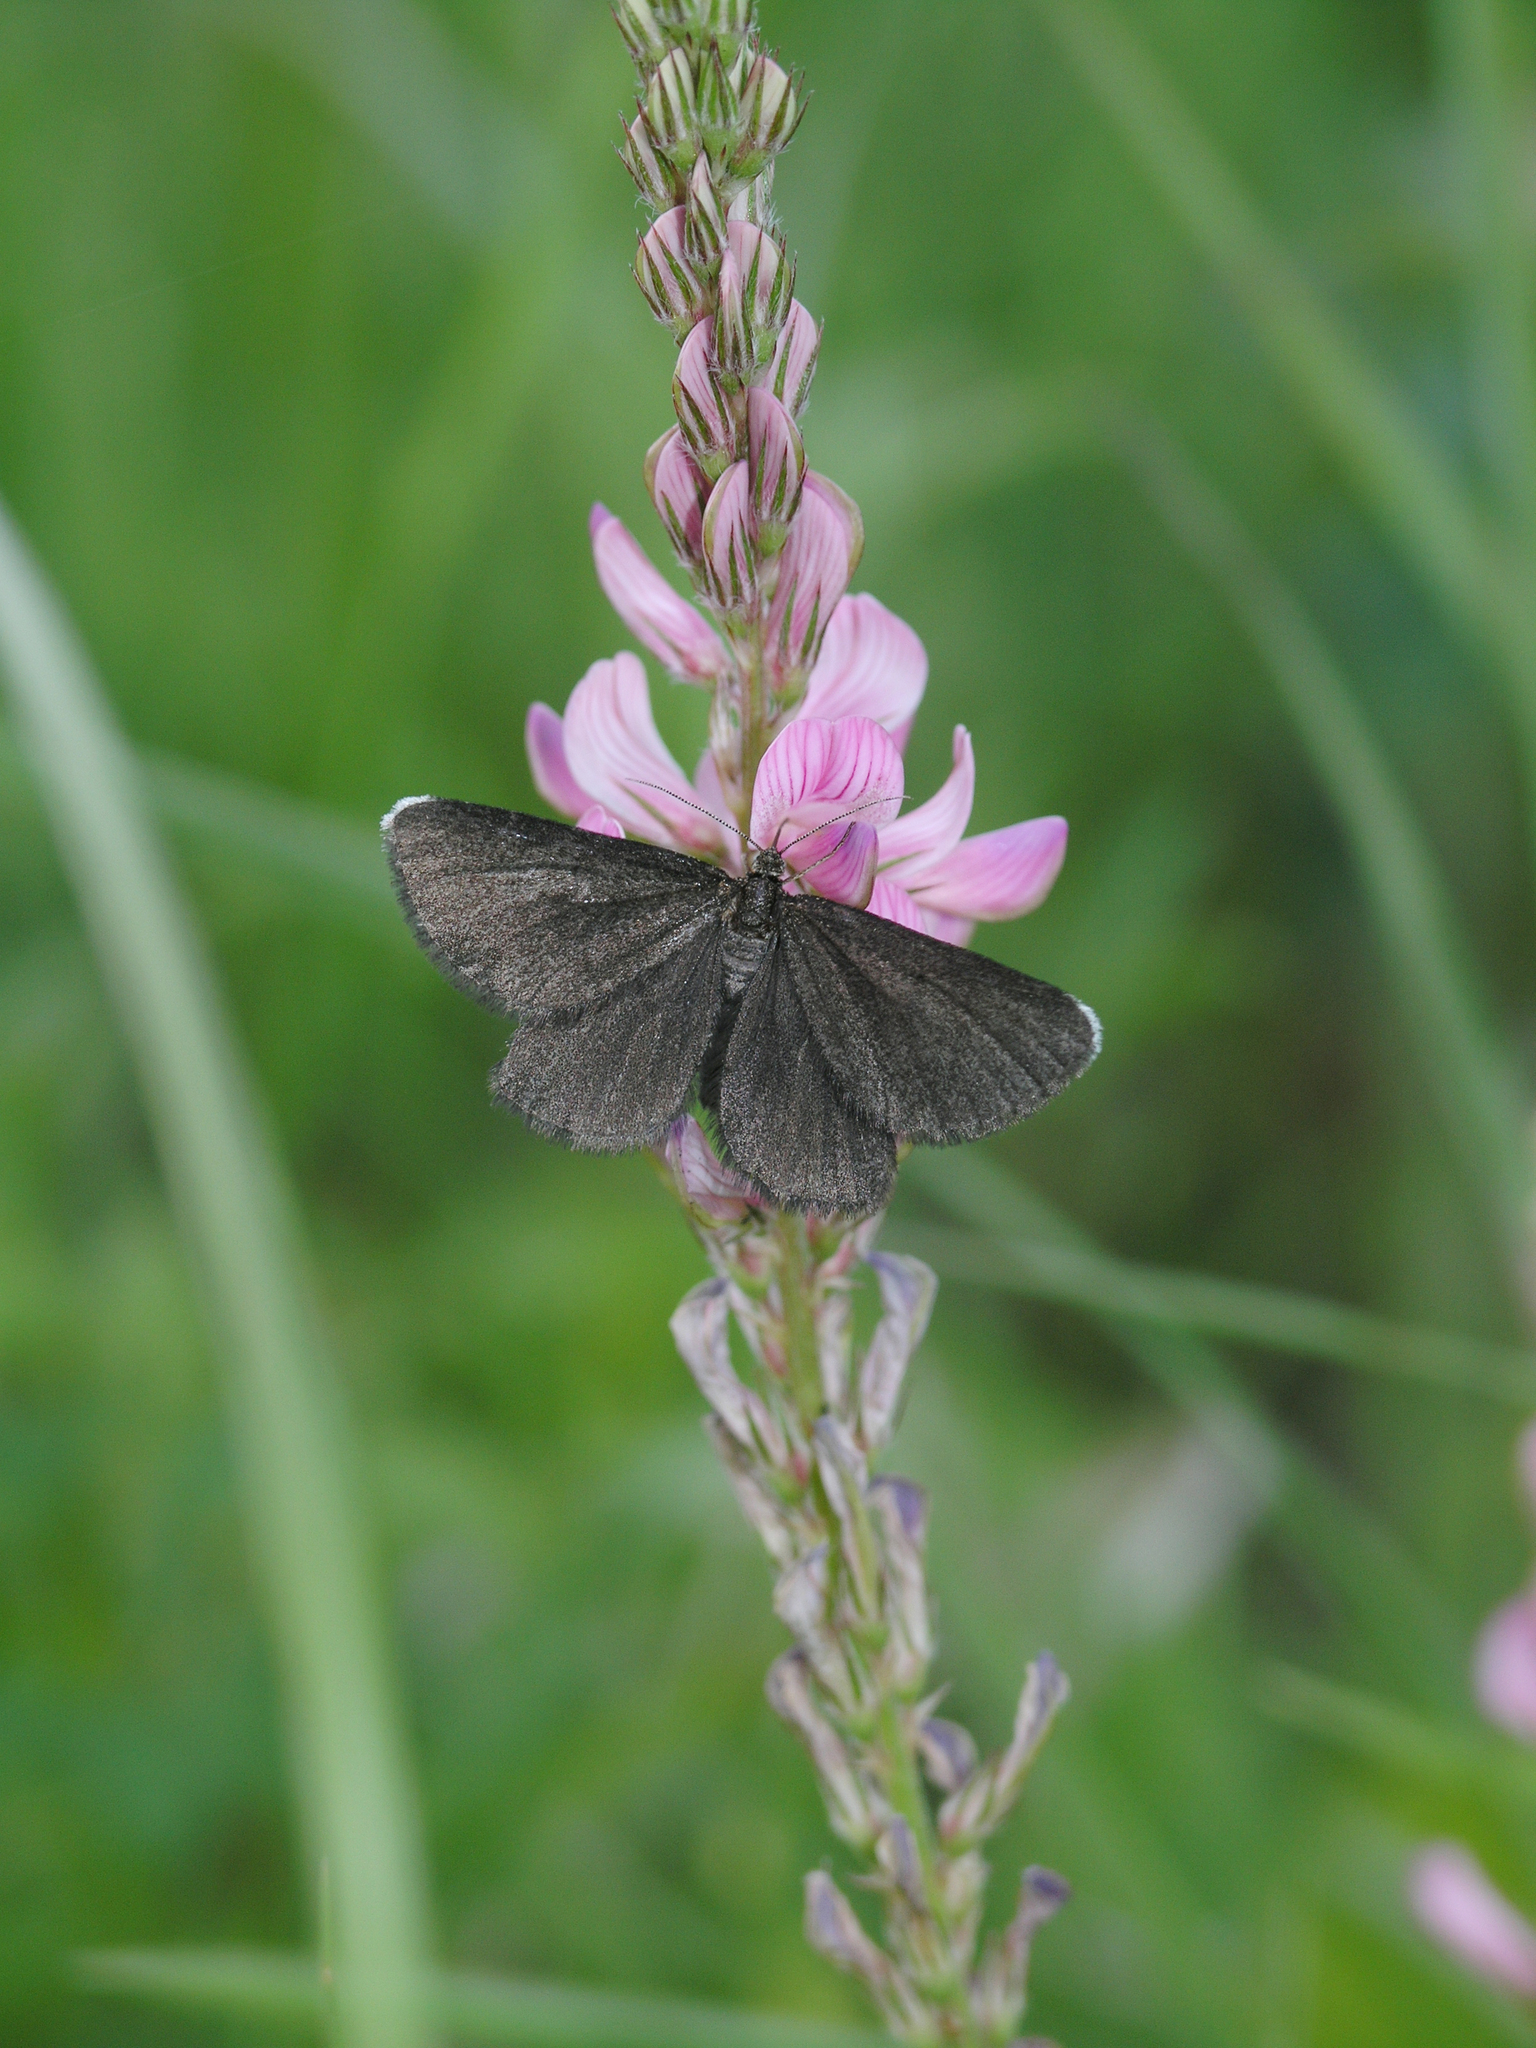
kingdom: Plantae
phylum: Tracheophyta
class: Magnoliopsida
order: Fabales
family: Fabaceae
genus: Onobrychis
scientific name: Onobrychis arenaria
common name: Sand esparcet
